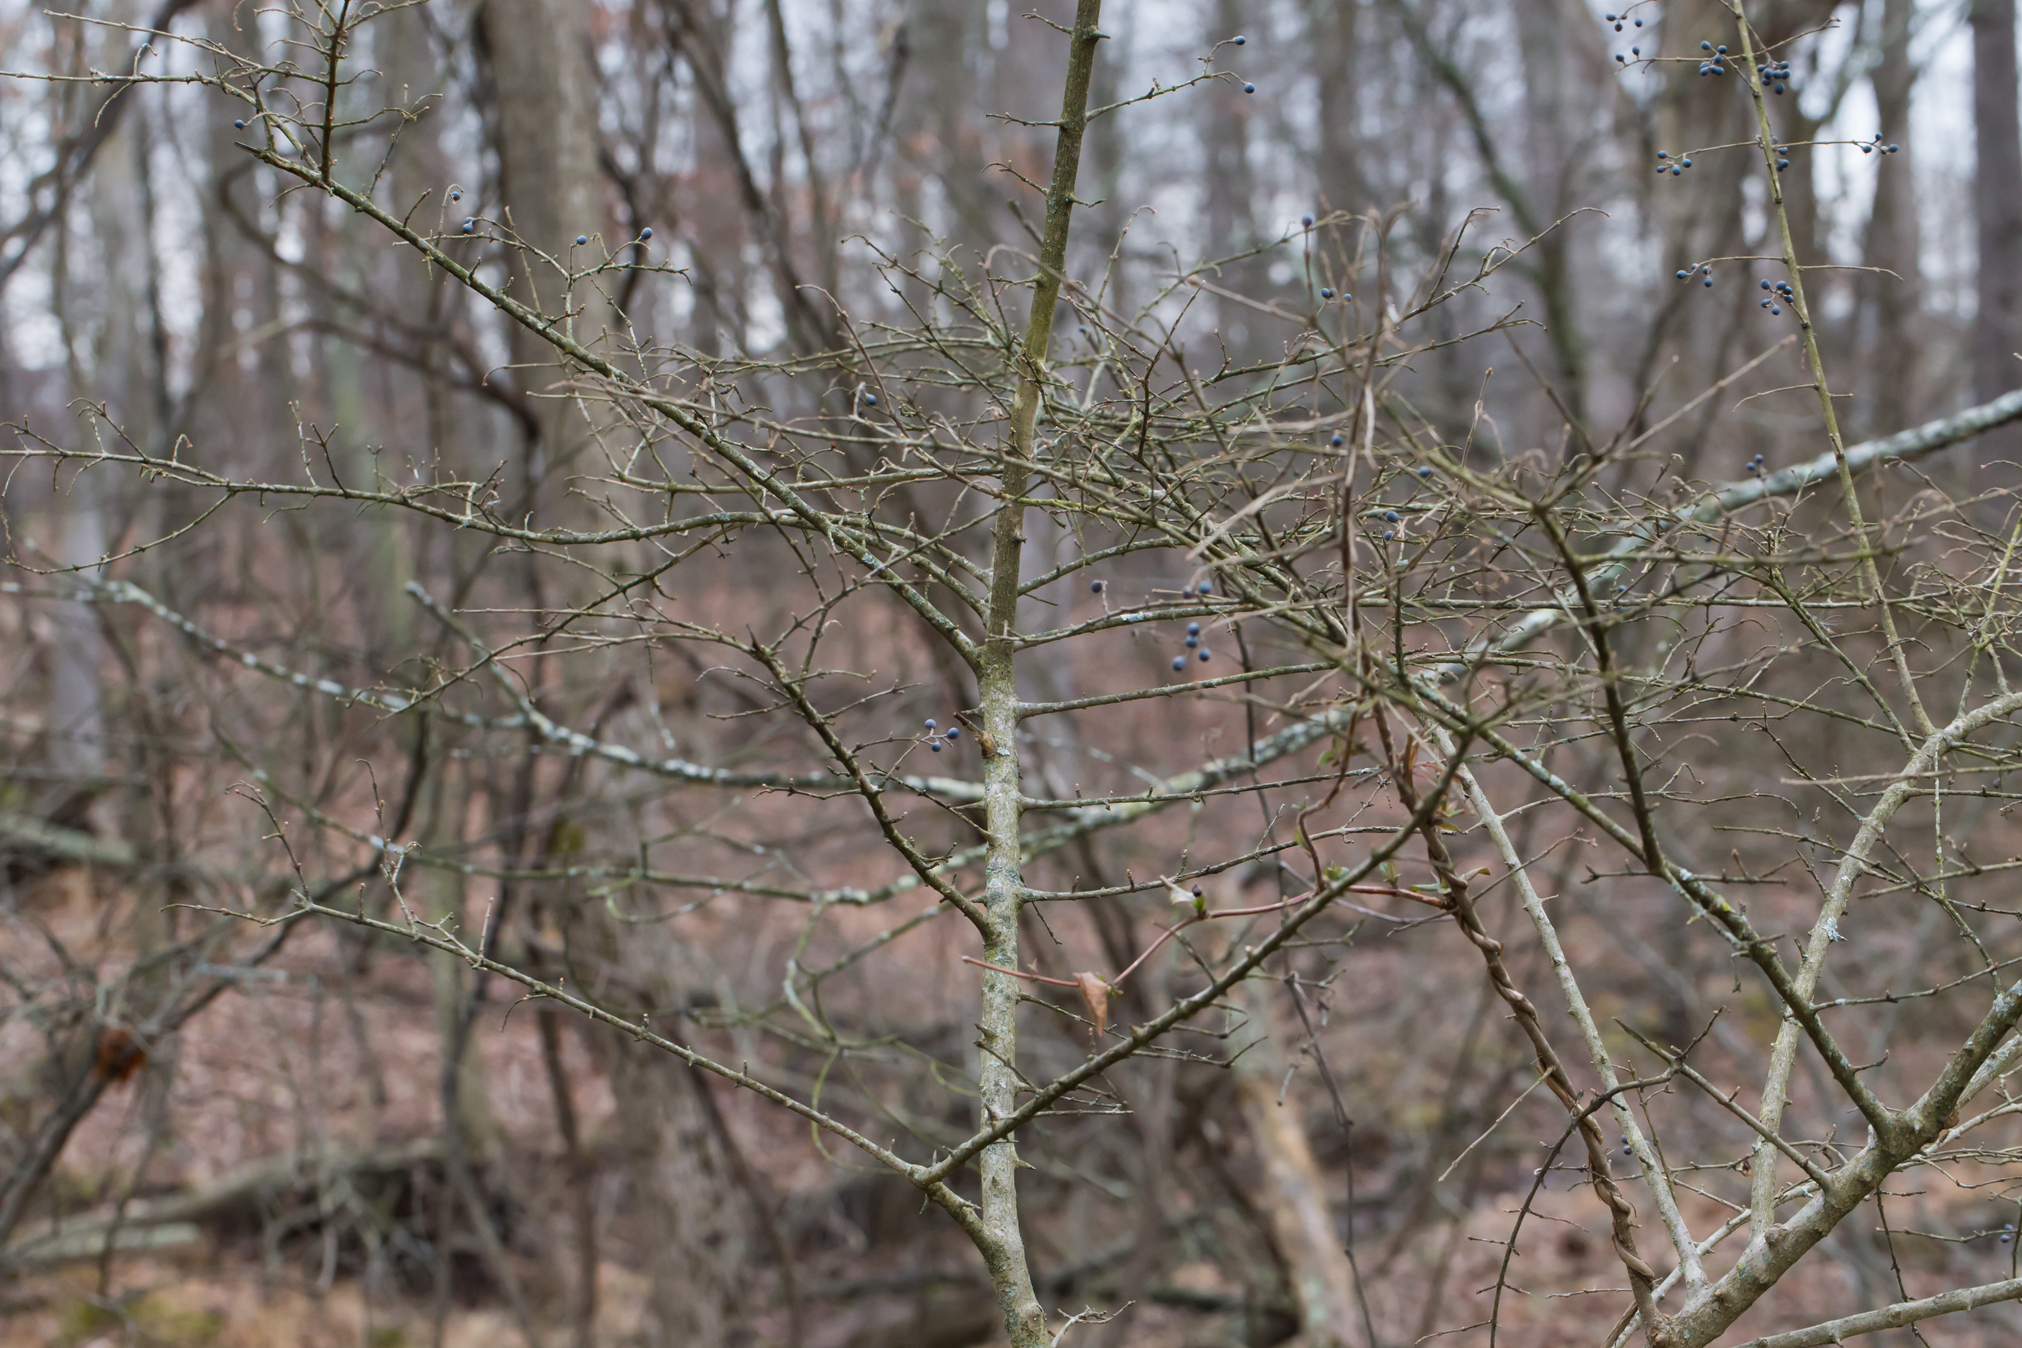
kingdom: Plantae
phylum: Tracheophyta
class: Magnoliopsida
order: Lamiales
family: Oleaceae
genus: Ligustrum
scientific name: Ligustrum obtusifolium
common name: Border privet
